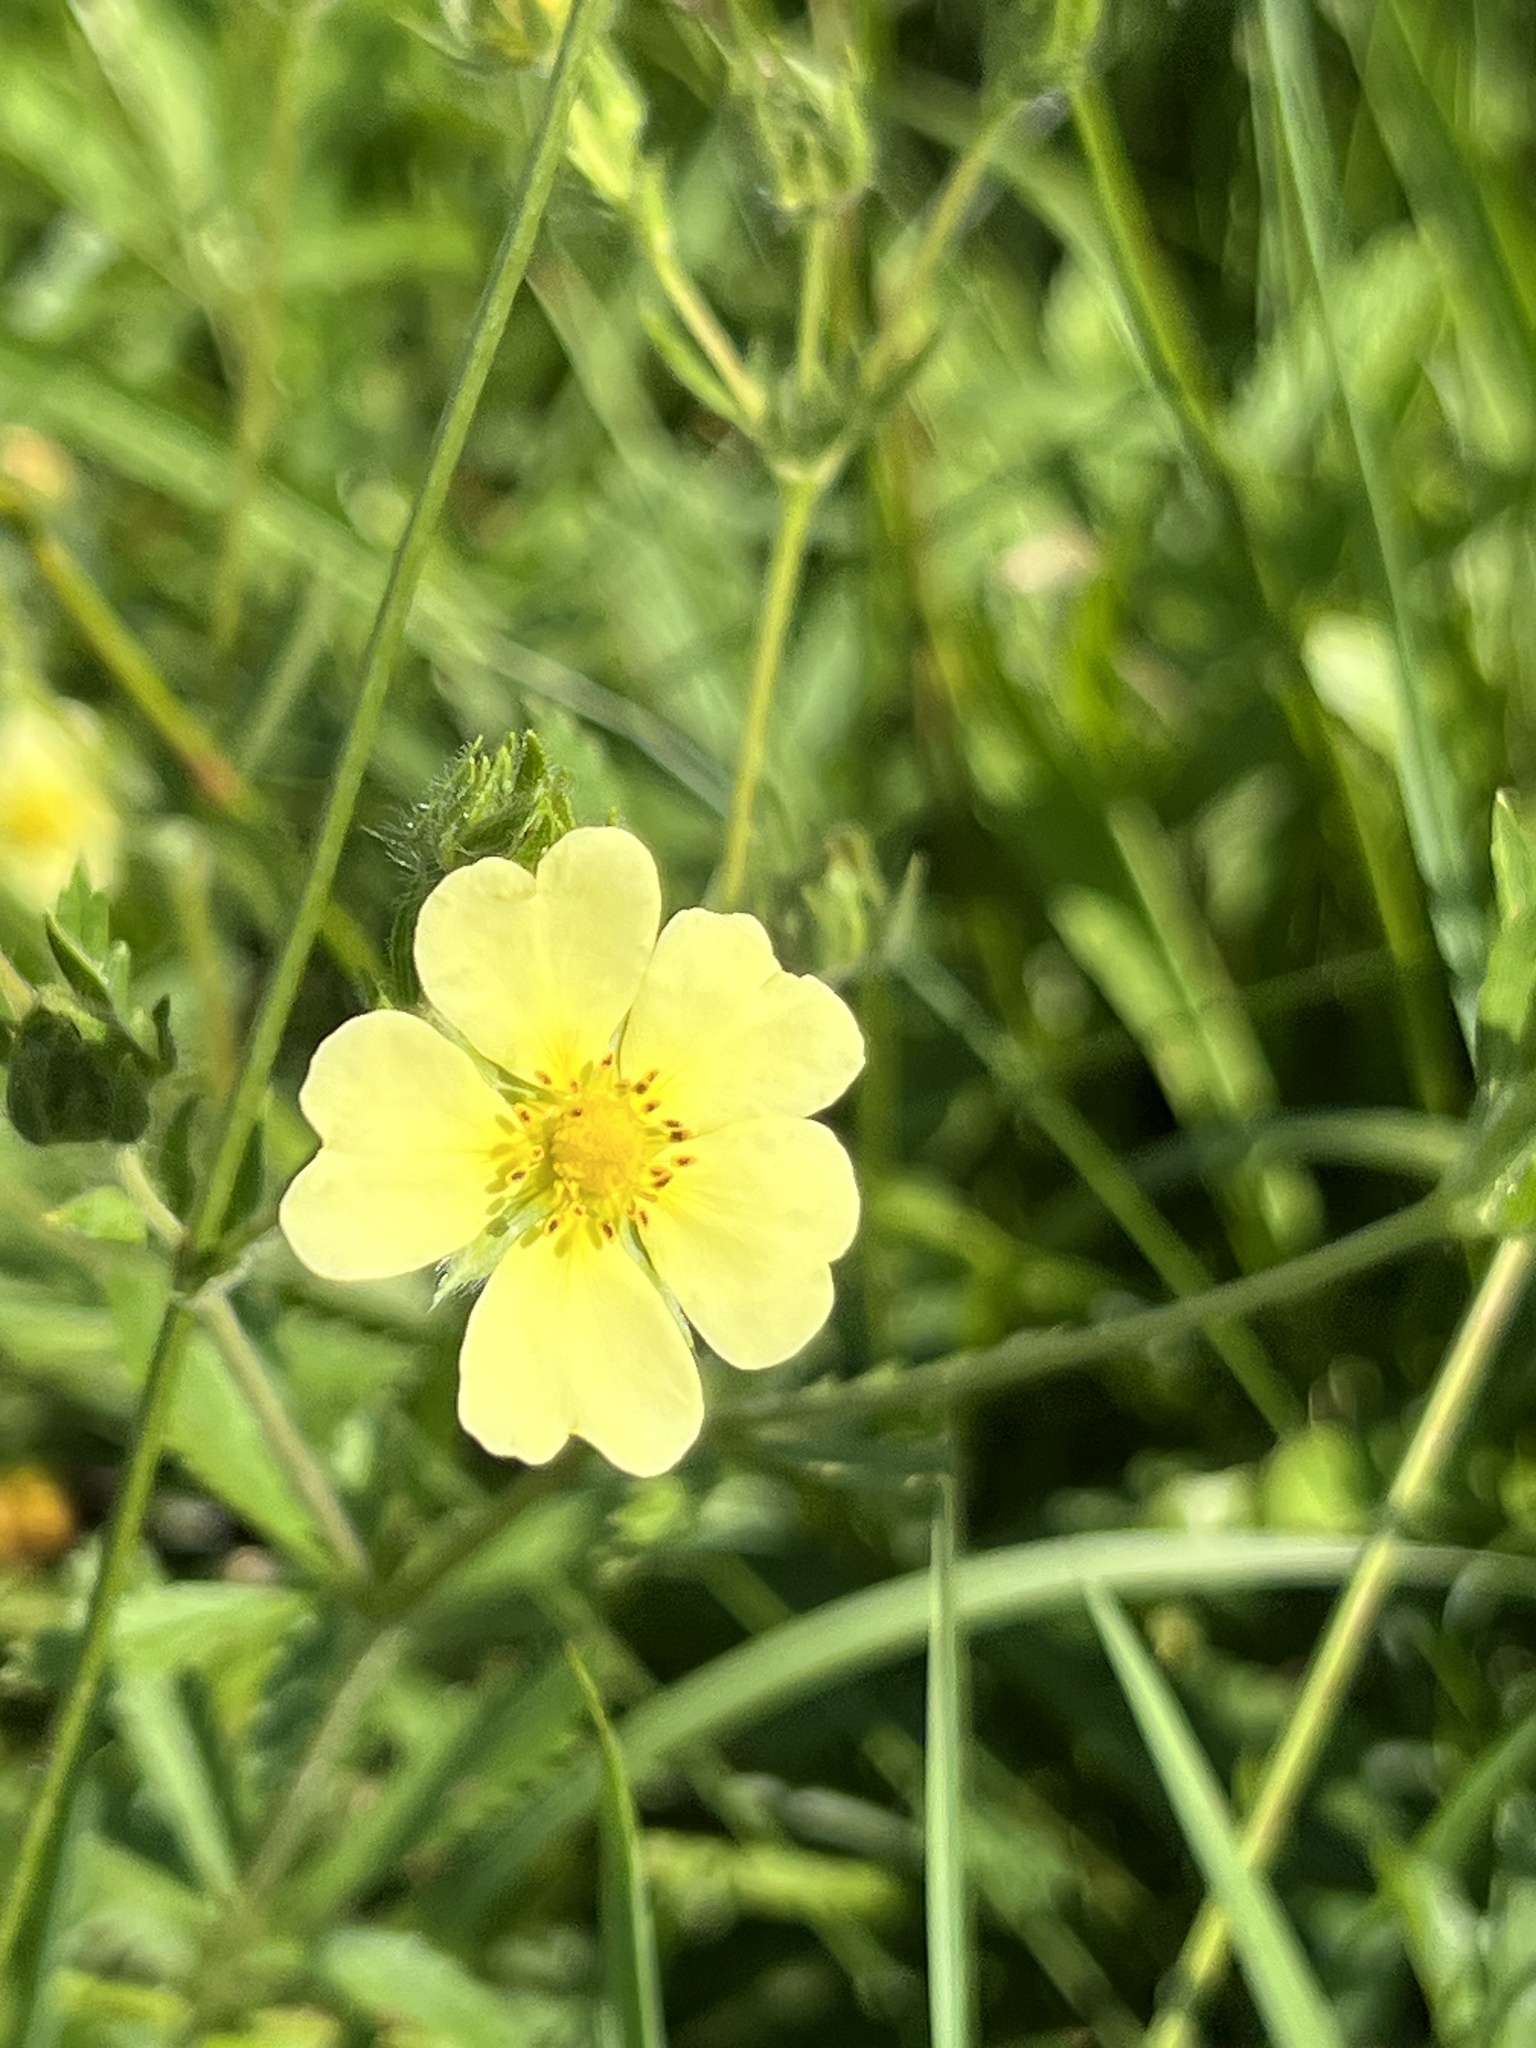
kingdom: Plantae
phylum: Tracheophyta
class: Magnoliopsida
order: Rosales
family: Rosaceae
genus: Potentilla
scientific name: Potentilla recta
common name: Sulphur cinquefoil
